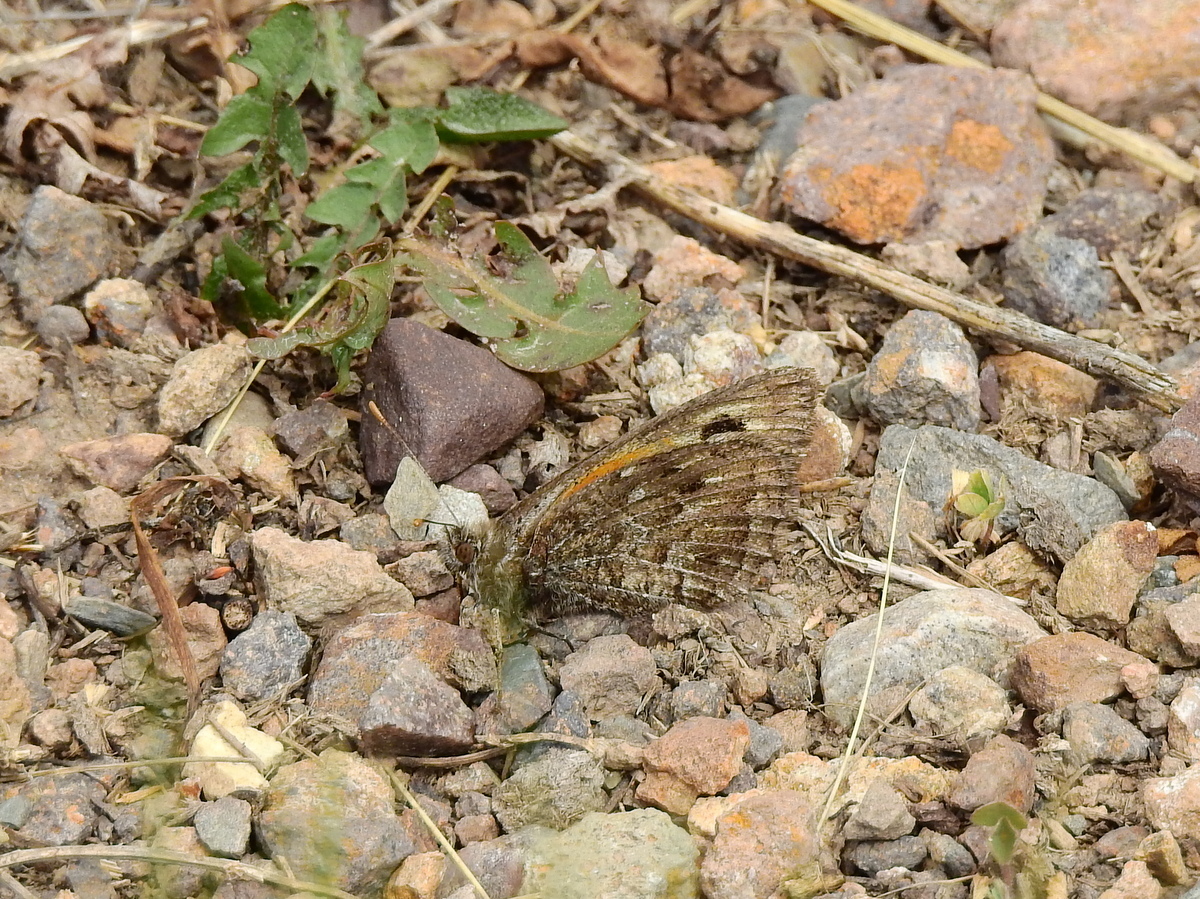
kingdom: Animalia
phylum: Arthropoda
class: Insecta
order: Lepidoptera
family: Nymphalidae
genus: Argyrophorus
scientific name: Argyrophorus
